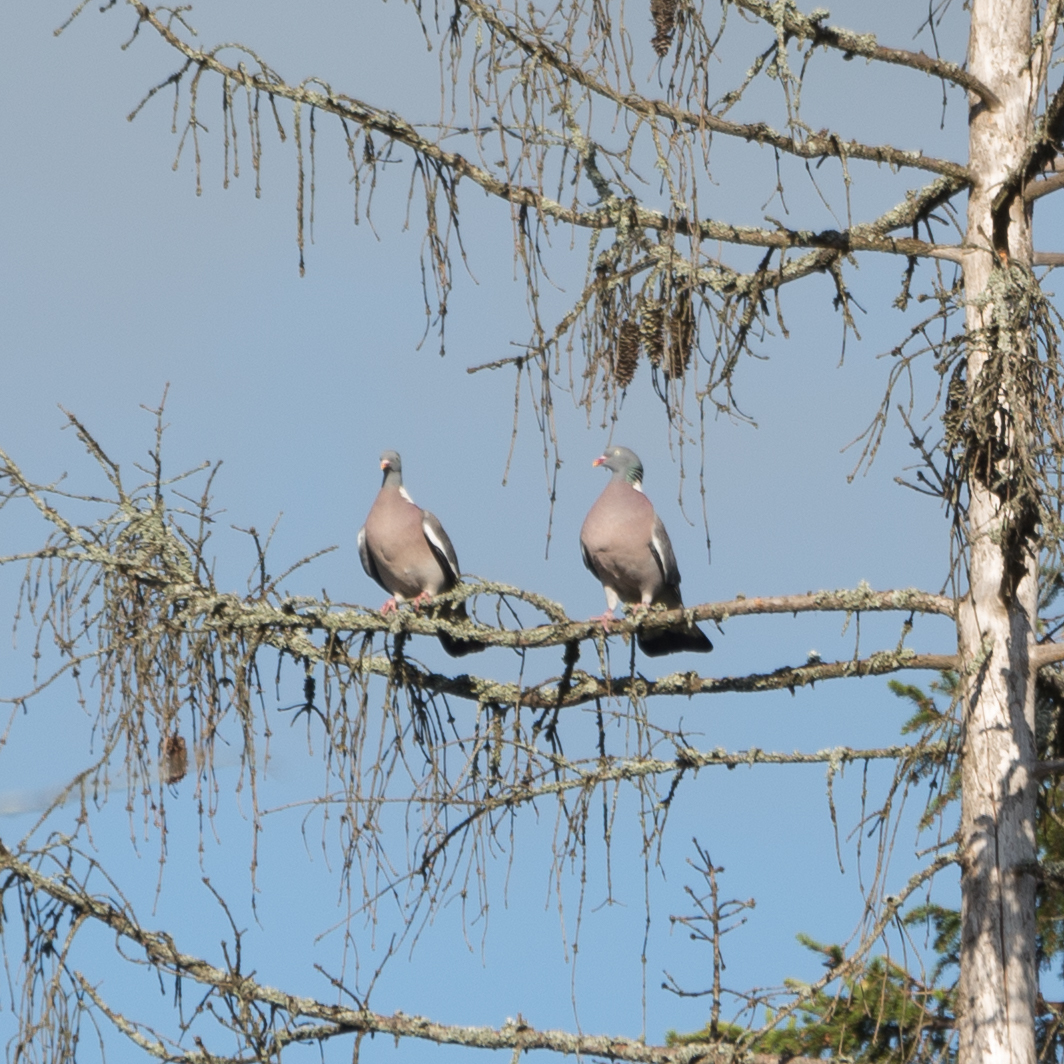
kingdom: Animalia
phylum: Chordata
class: Aves
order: Columbiformes
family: Columbidae
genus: Columba
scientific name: Columba palumbus
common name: Common wood pigeon
